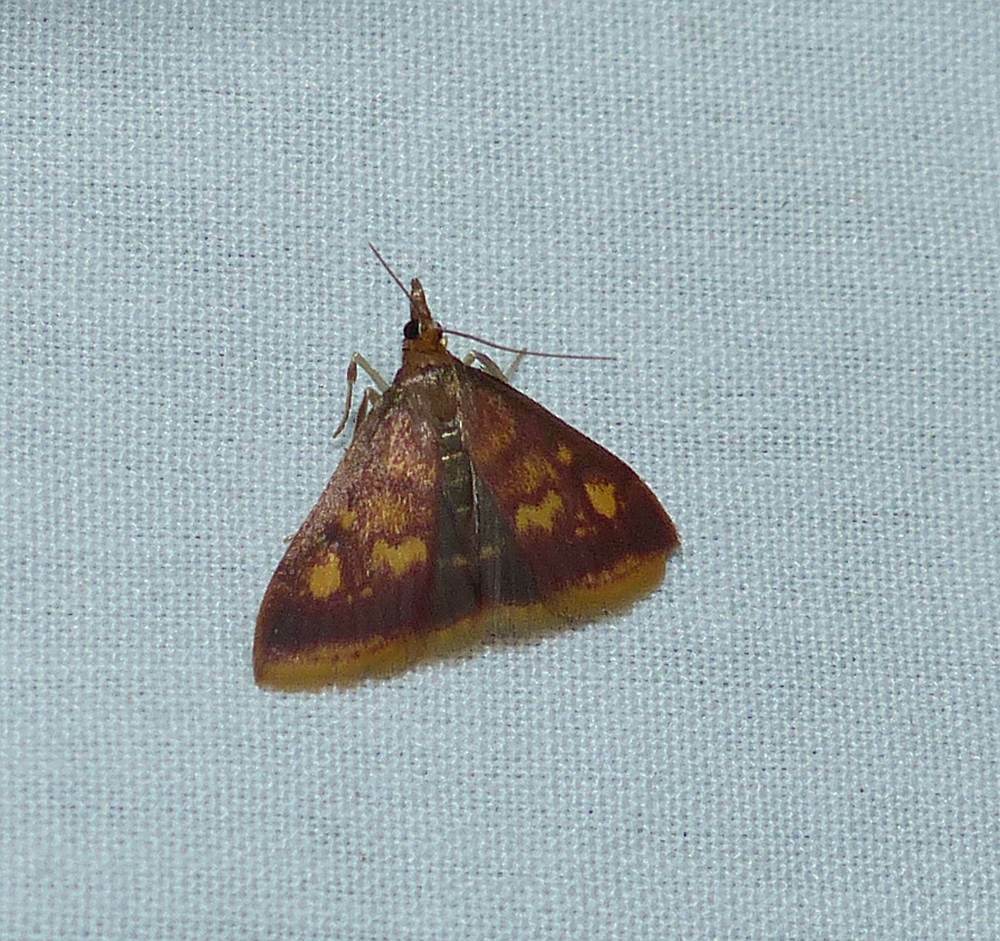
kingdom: Animalia
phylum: Arthropoda
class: Insecta
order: Lepidoptera
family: Crambidae
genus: Pyrausta
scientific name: Pyrausta acrionalis
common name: Mint-loving pyrausta moth
